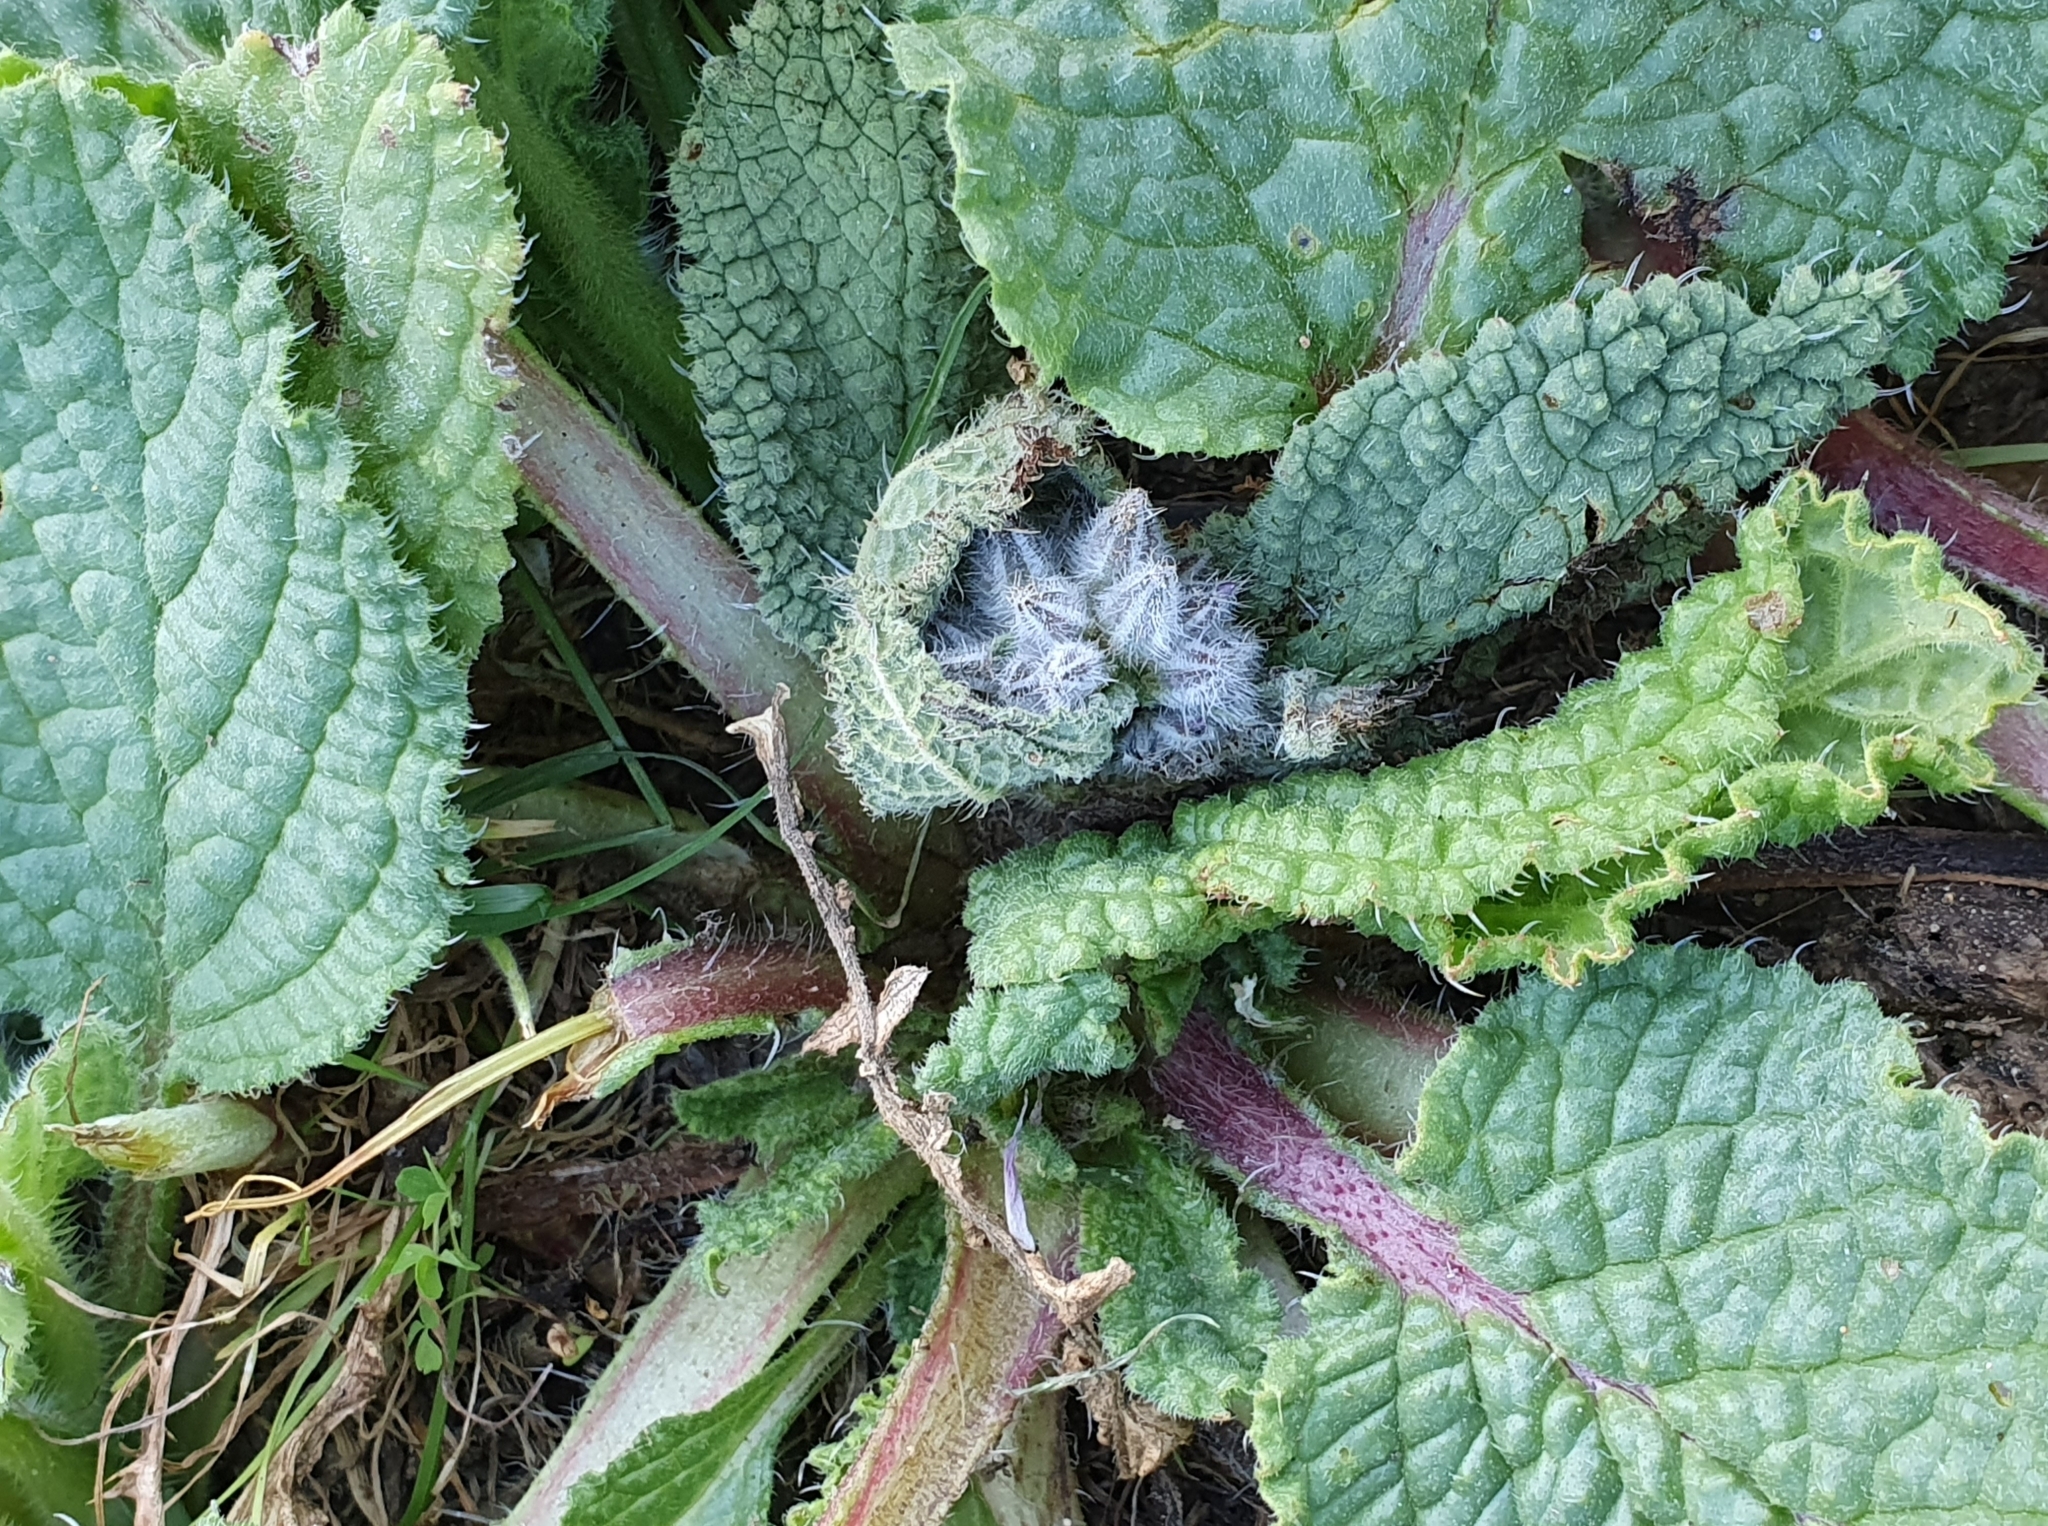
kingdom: Plantae
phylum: Tracheophyta
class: Magnoliopsida
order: Boraginales
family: Boraginaceae
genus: Borago
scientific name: Borago officinalis
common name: Borage
